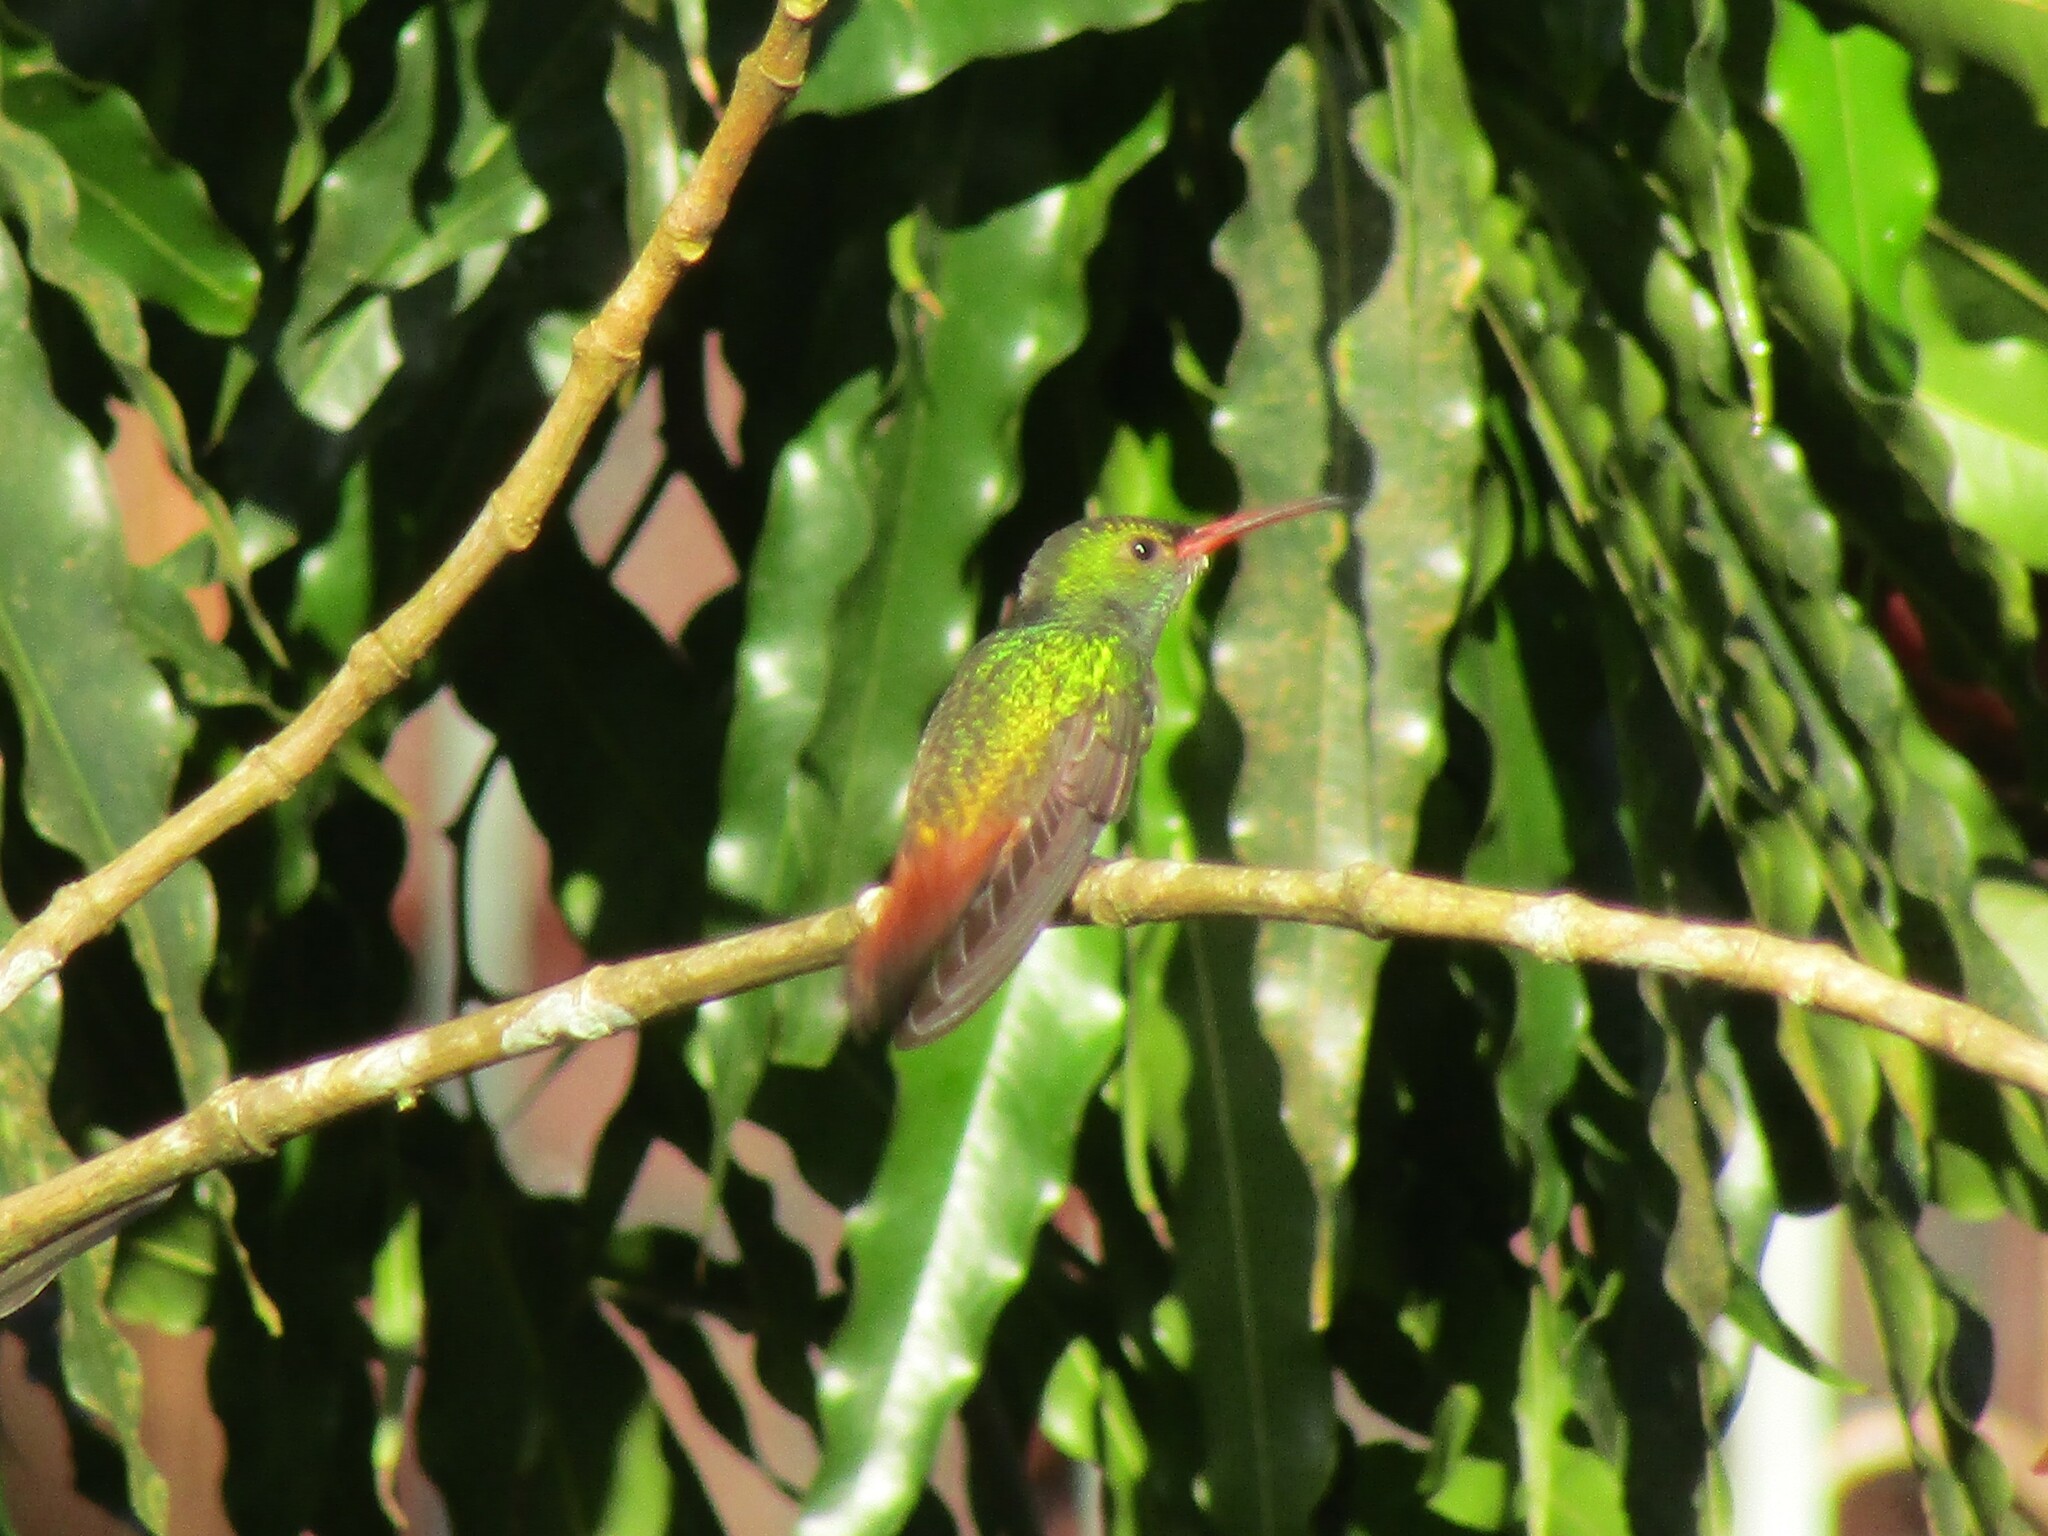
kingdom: Animalia
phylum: Chordata
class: Aves
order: Apodiformes
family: Trochilidae
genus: Amazilia
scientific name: Amazilia tzacatl
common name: Rufous-tailed hummingbird
